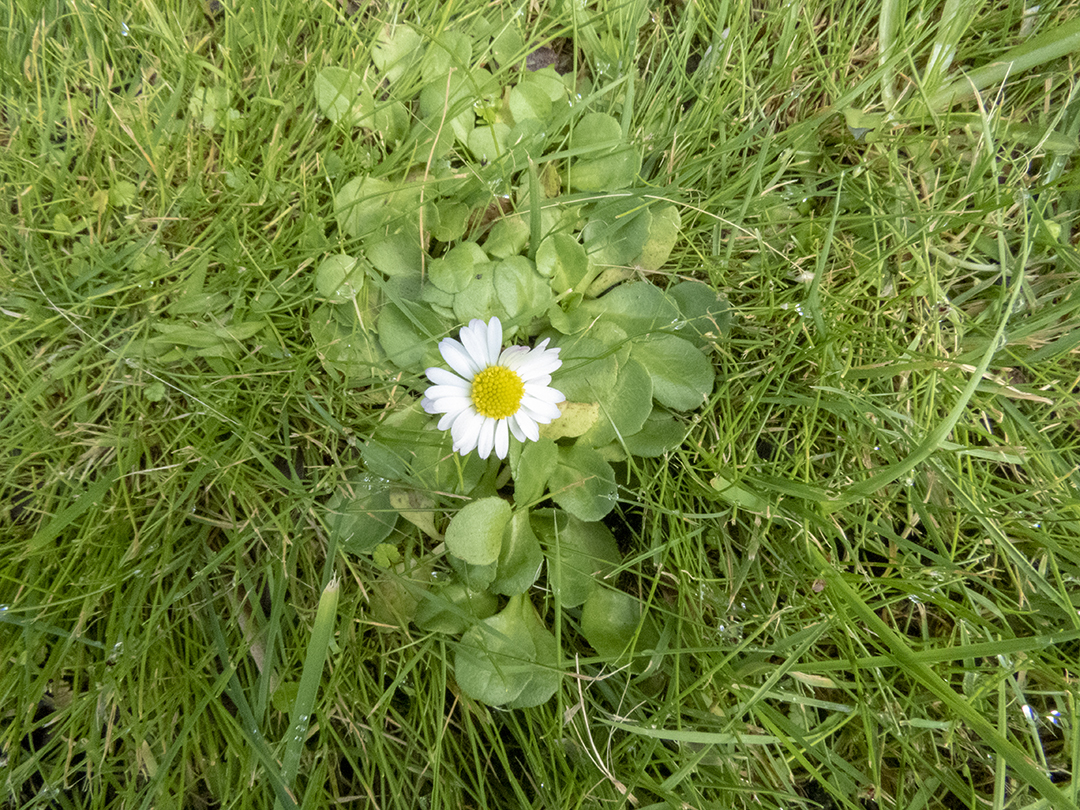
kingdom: Plantae
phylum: Tracheophyta
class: Magnoliopsida
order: Asterales
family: Asteraceae
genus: Bellis
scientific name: Bellis perennis
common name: Lawndaisy
